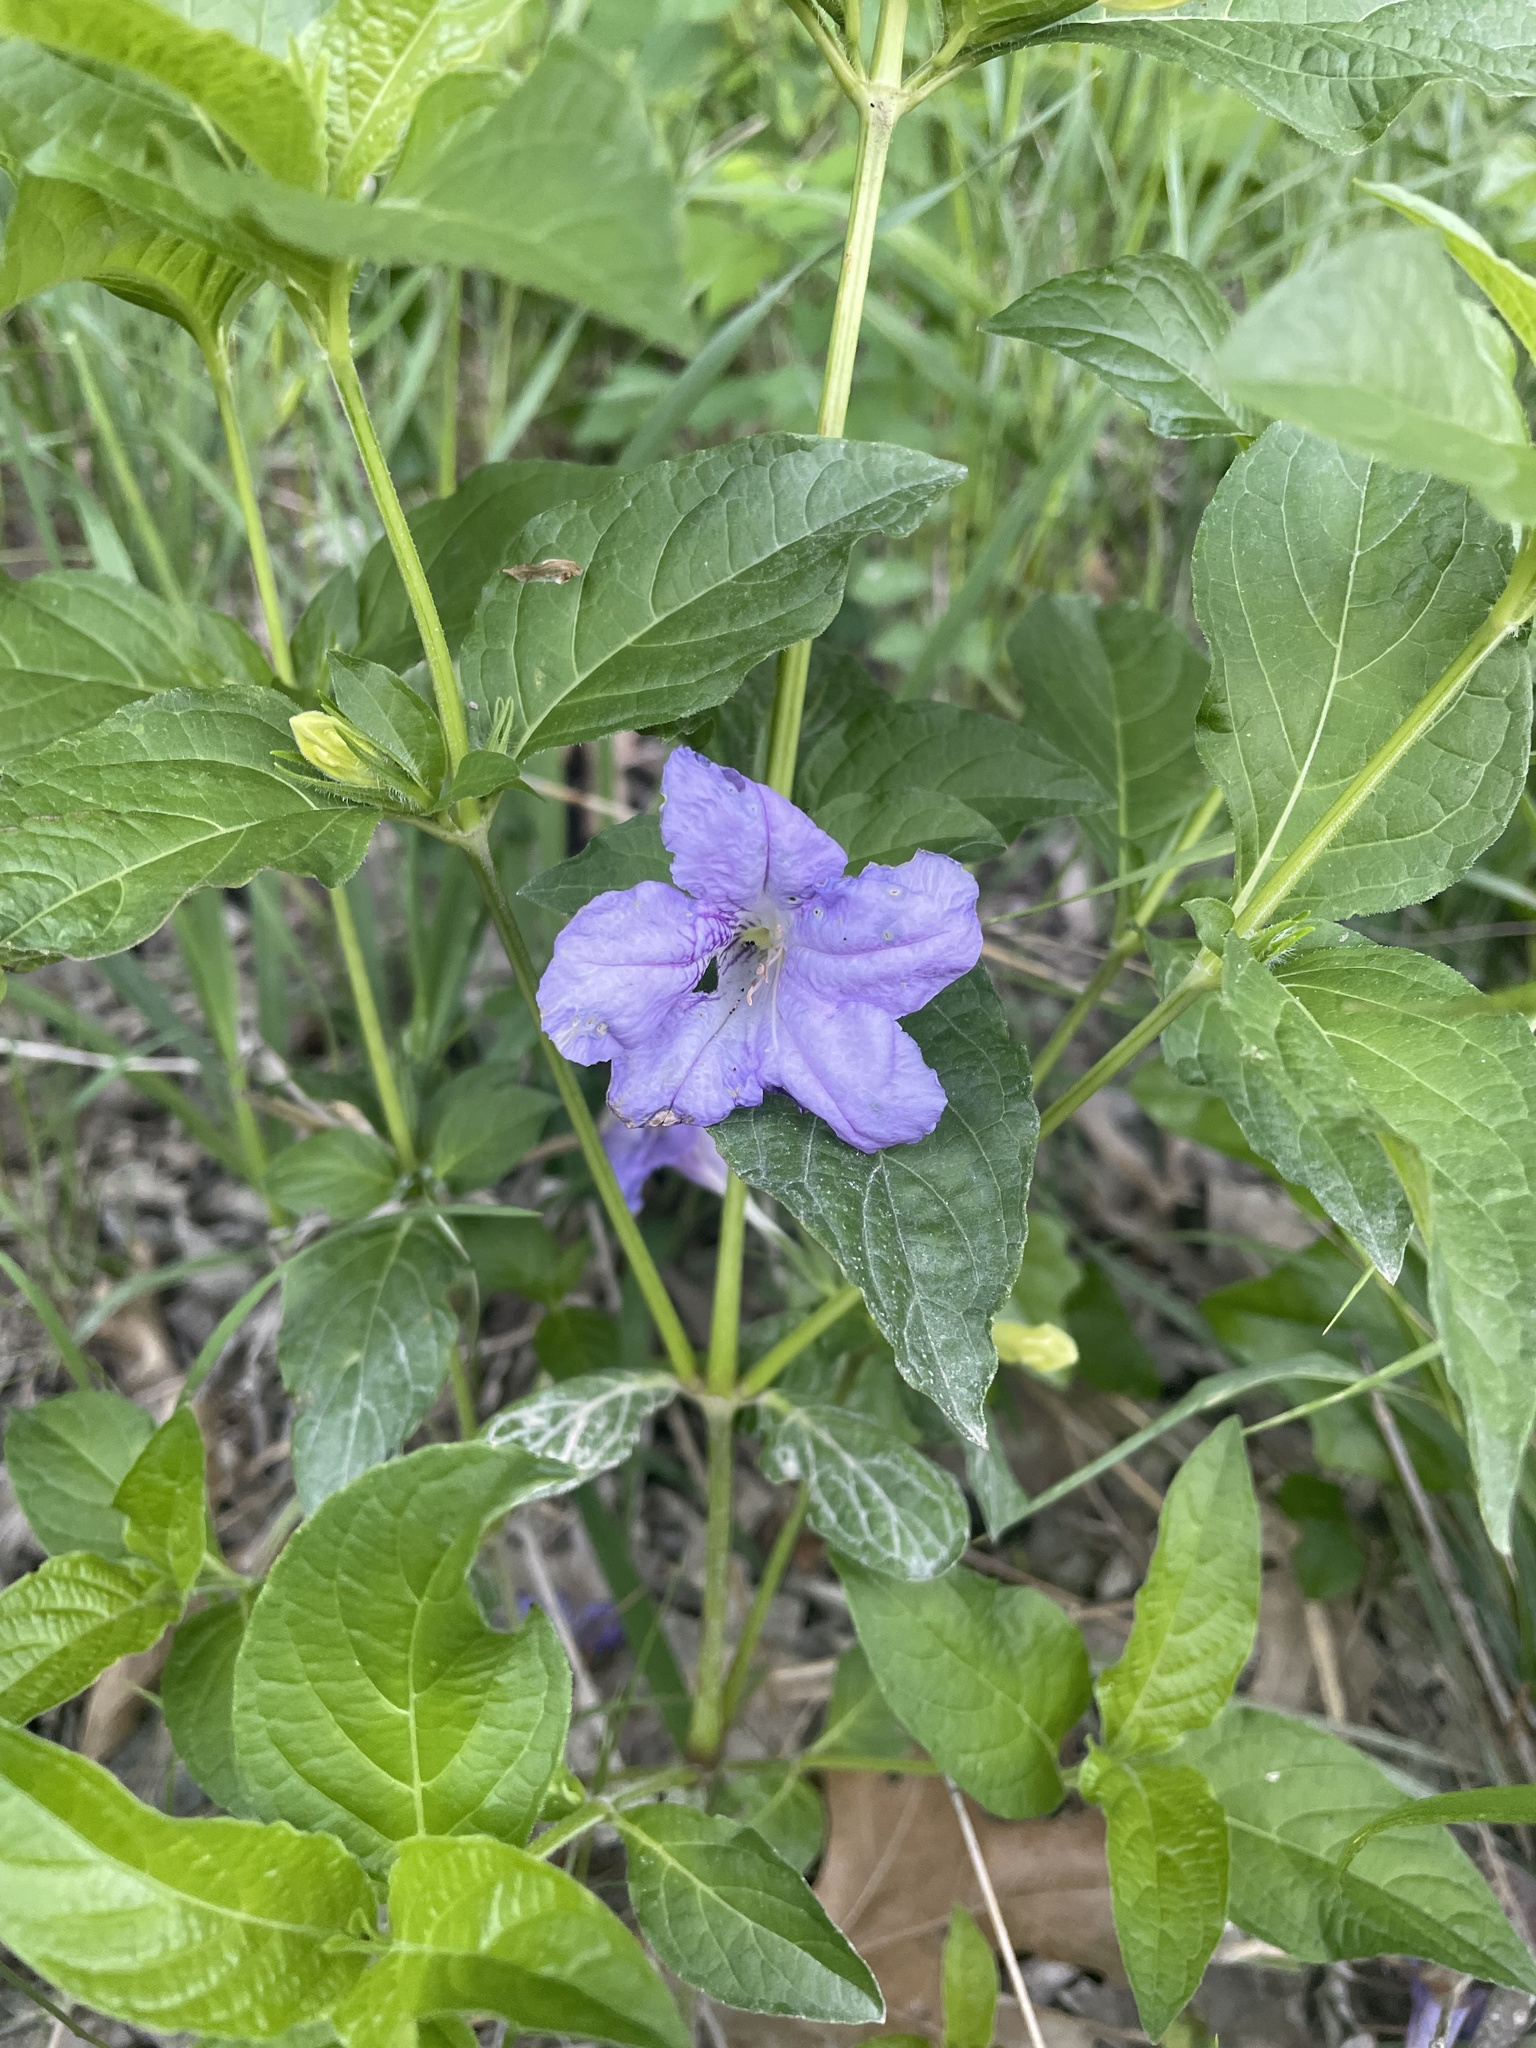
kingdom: Plantae
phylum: Tracheophyta
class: Magnoliopsida
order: Lamiales
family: Acanthaceae
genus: Ruellia
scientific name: Ruellia strepens
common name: Limestone wild petunia
